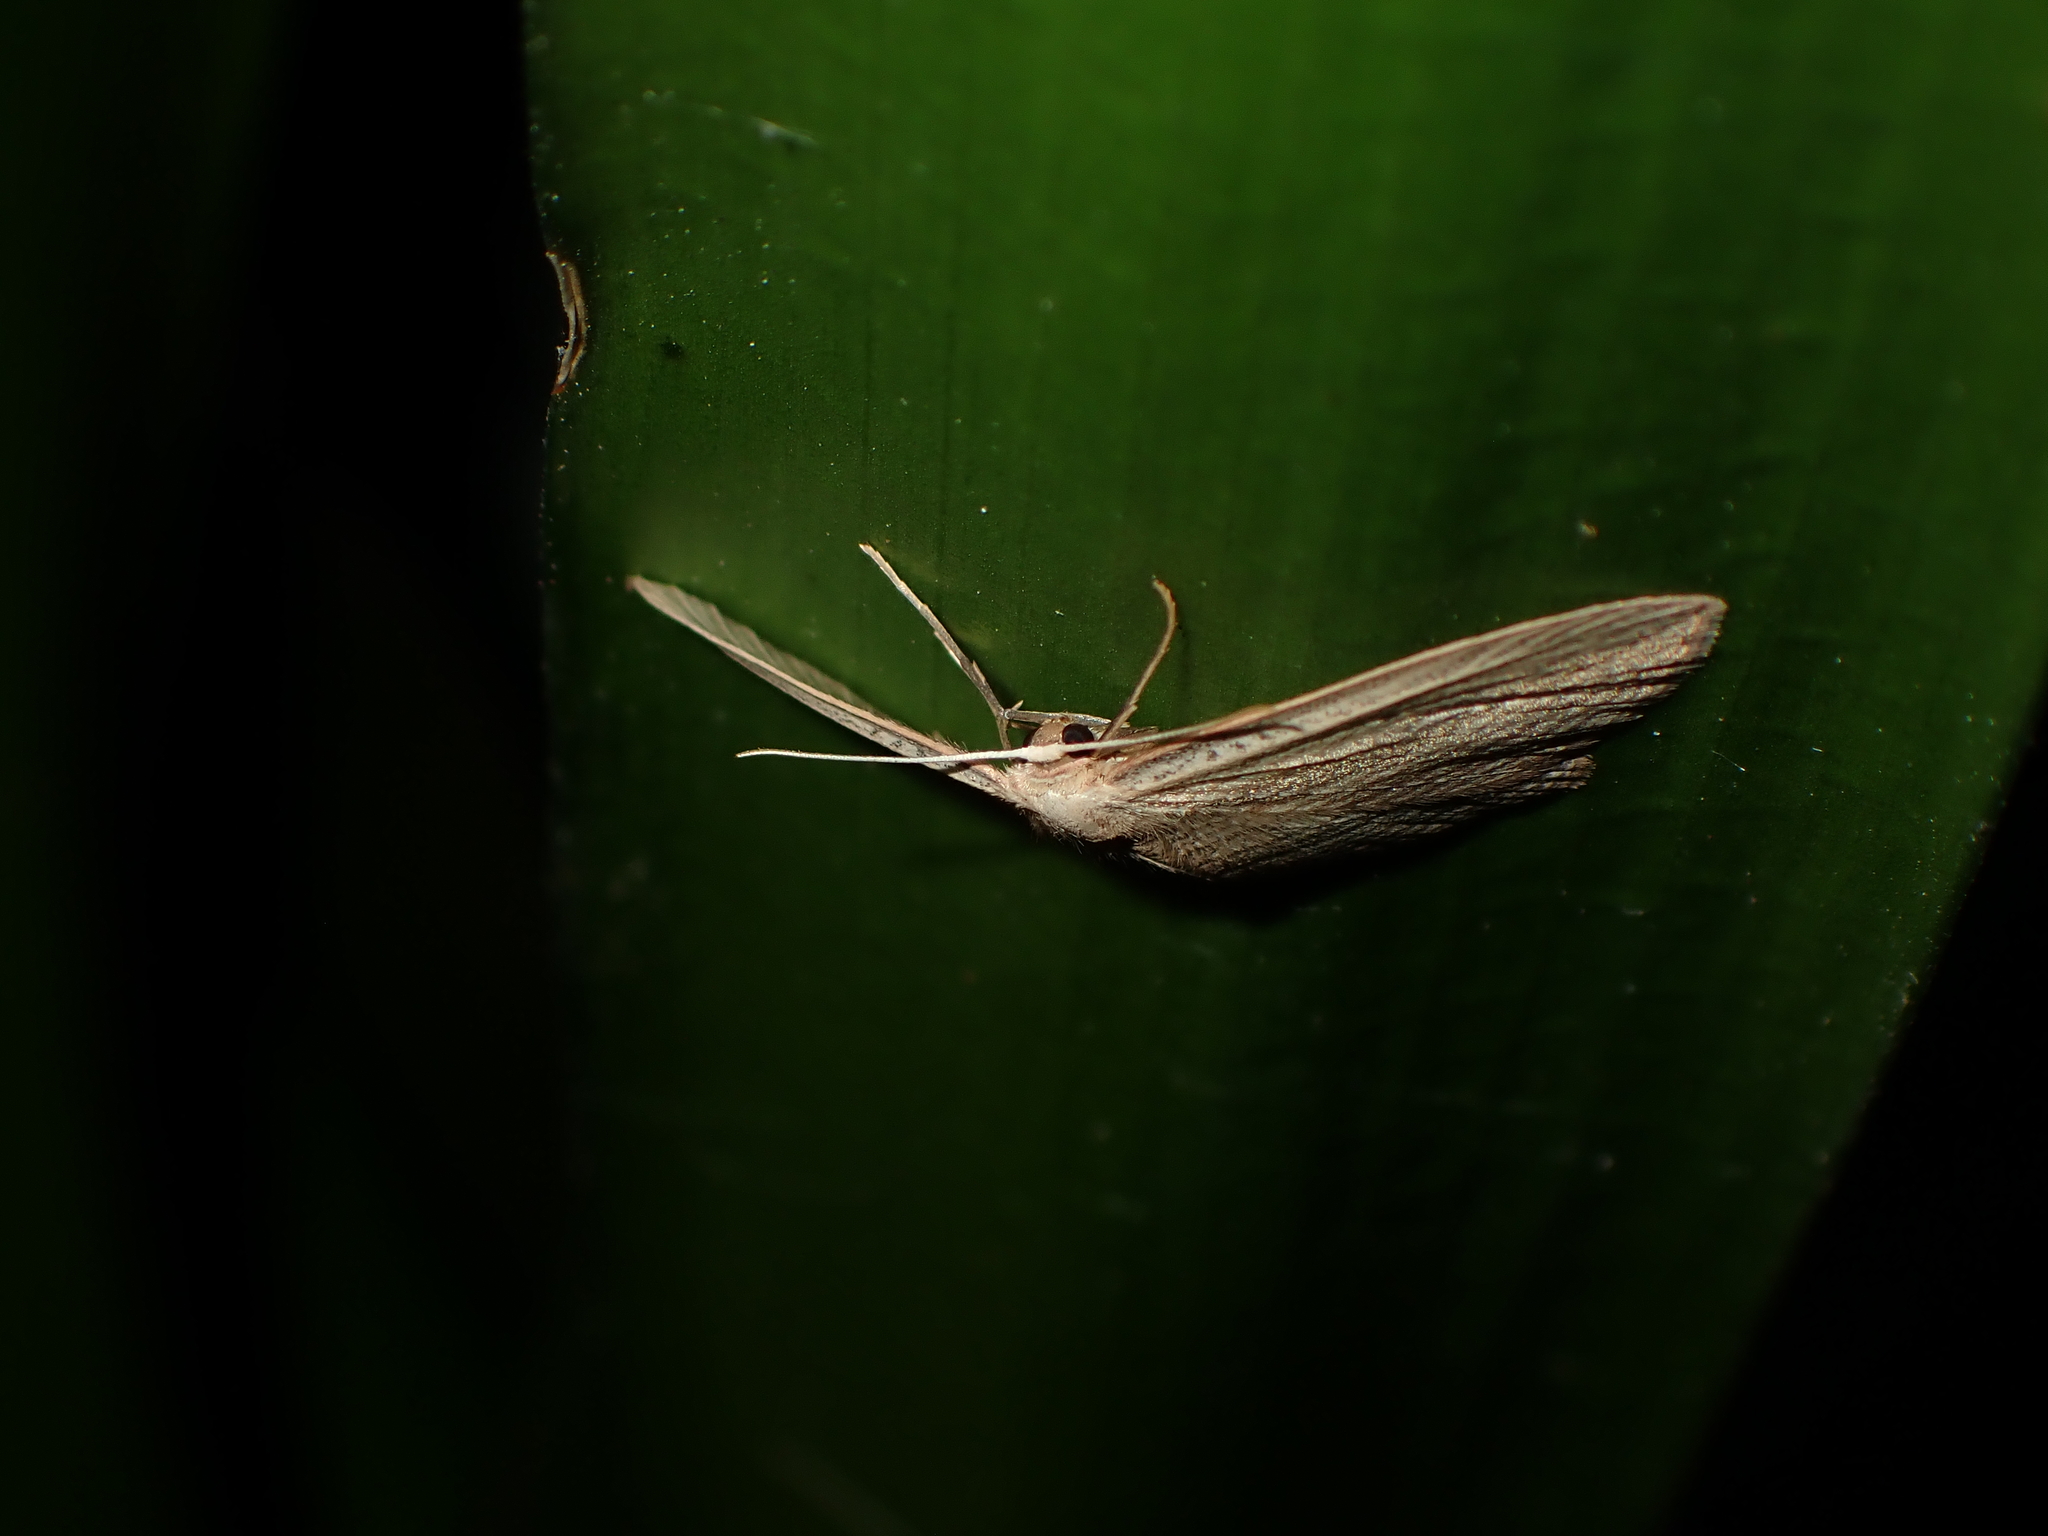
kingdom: Animalia
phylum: Arthropoda
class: Insecta
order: Lepidoptera
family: Geometridae
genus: Epiphryne
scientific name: Epiphryne verriculata
